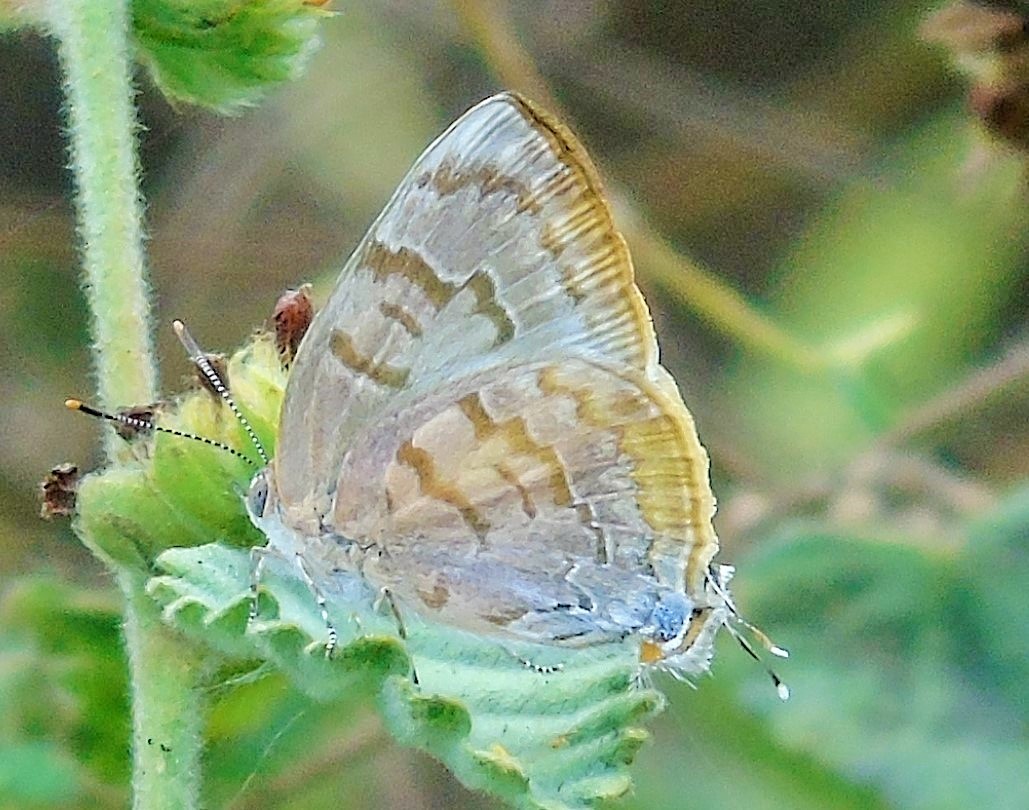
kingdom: Animalia
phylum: Arthropoda
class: Insecta
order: Lepidoptera
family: Lycaenidae
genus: Rekoa
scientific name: Rekoa palegon
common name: Gold-bordered hairstreak
